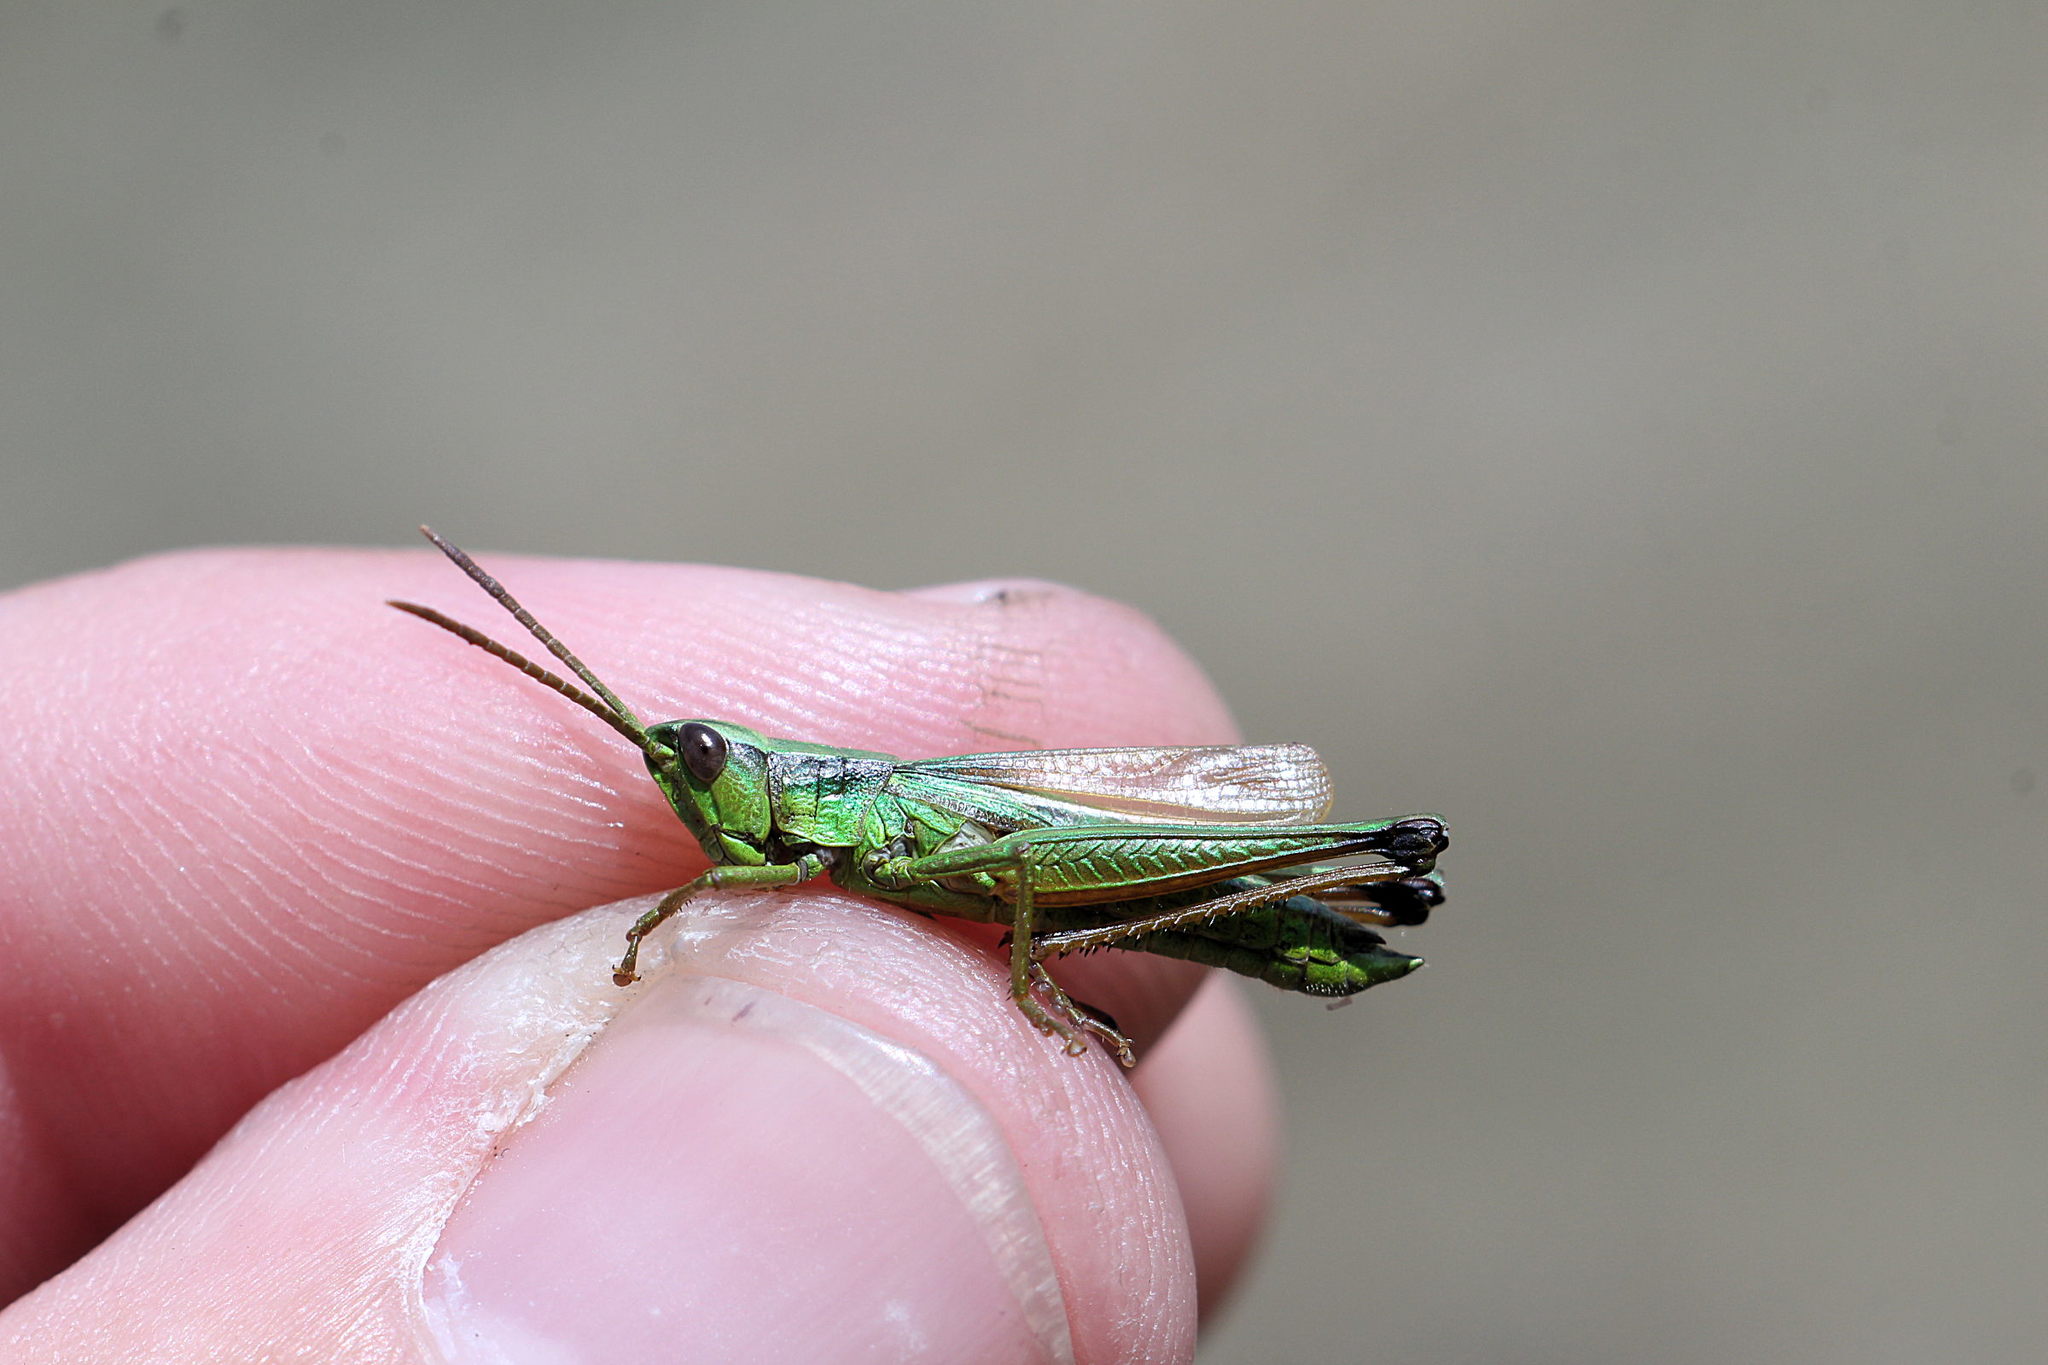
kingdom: Animalia
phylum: Arthropoda
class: Insecta
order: Orthoptera
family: Acrididae
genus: Chrysochraon
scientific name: Chrysochraon dispar
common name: Large gold grasshopper
